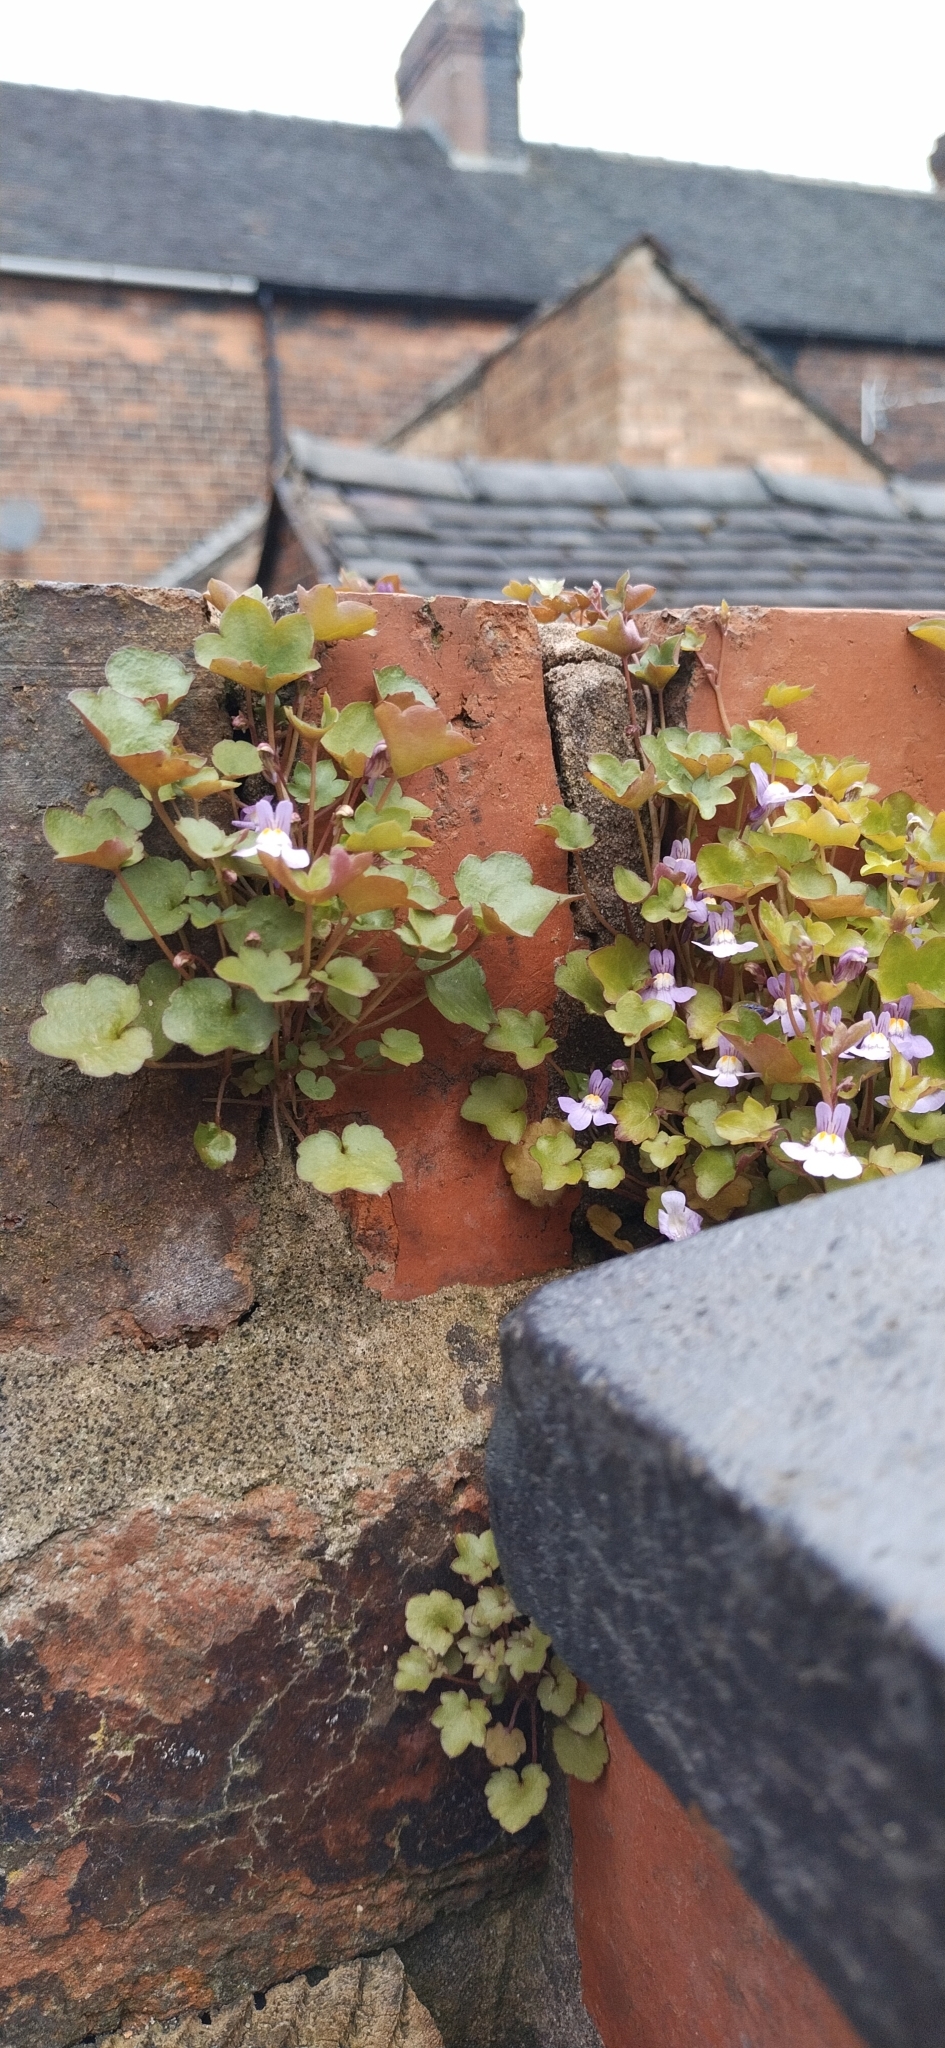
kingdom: Plantae
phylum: Tracheophyta
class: Magnoliopsida
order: Lamiales
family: Plantaginaceae
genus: Cymbalaria
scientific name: Cymbalaria muralis
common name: Ivy-leaved toadflax
